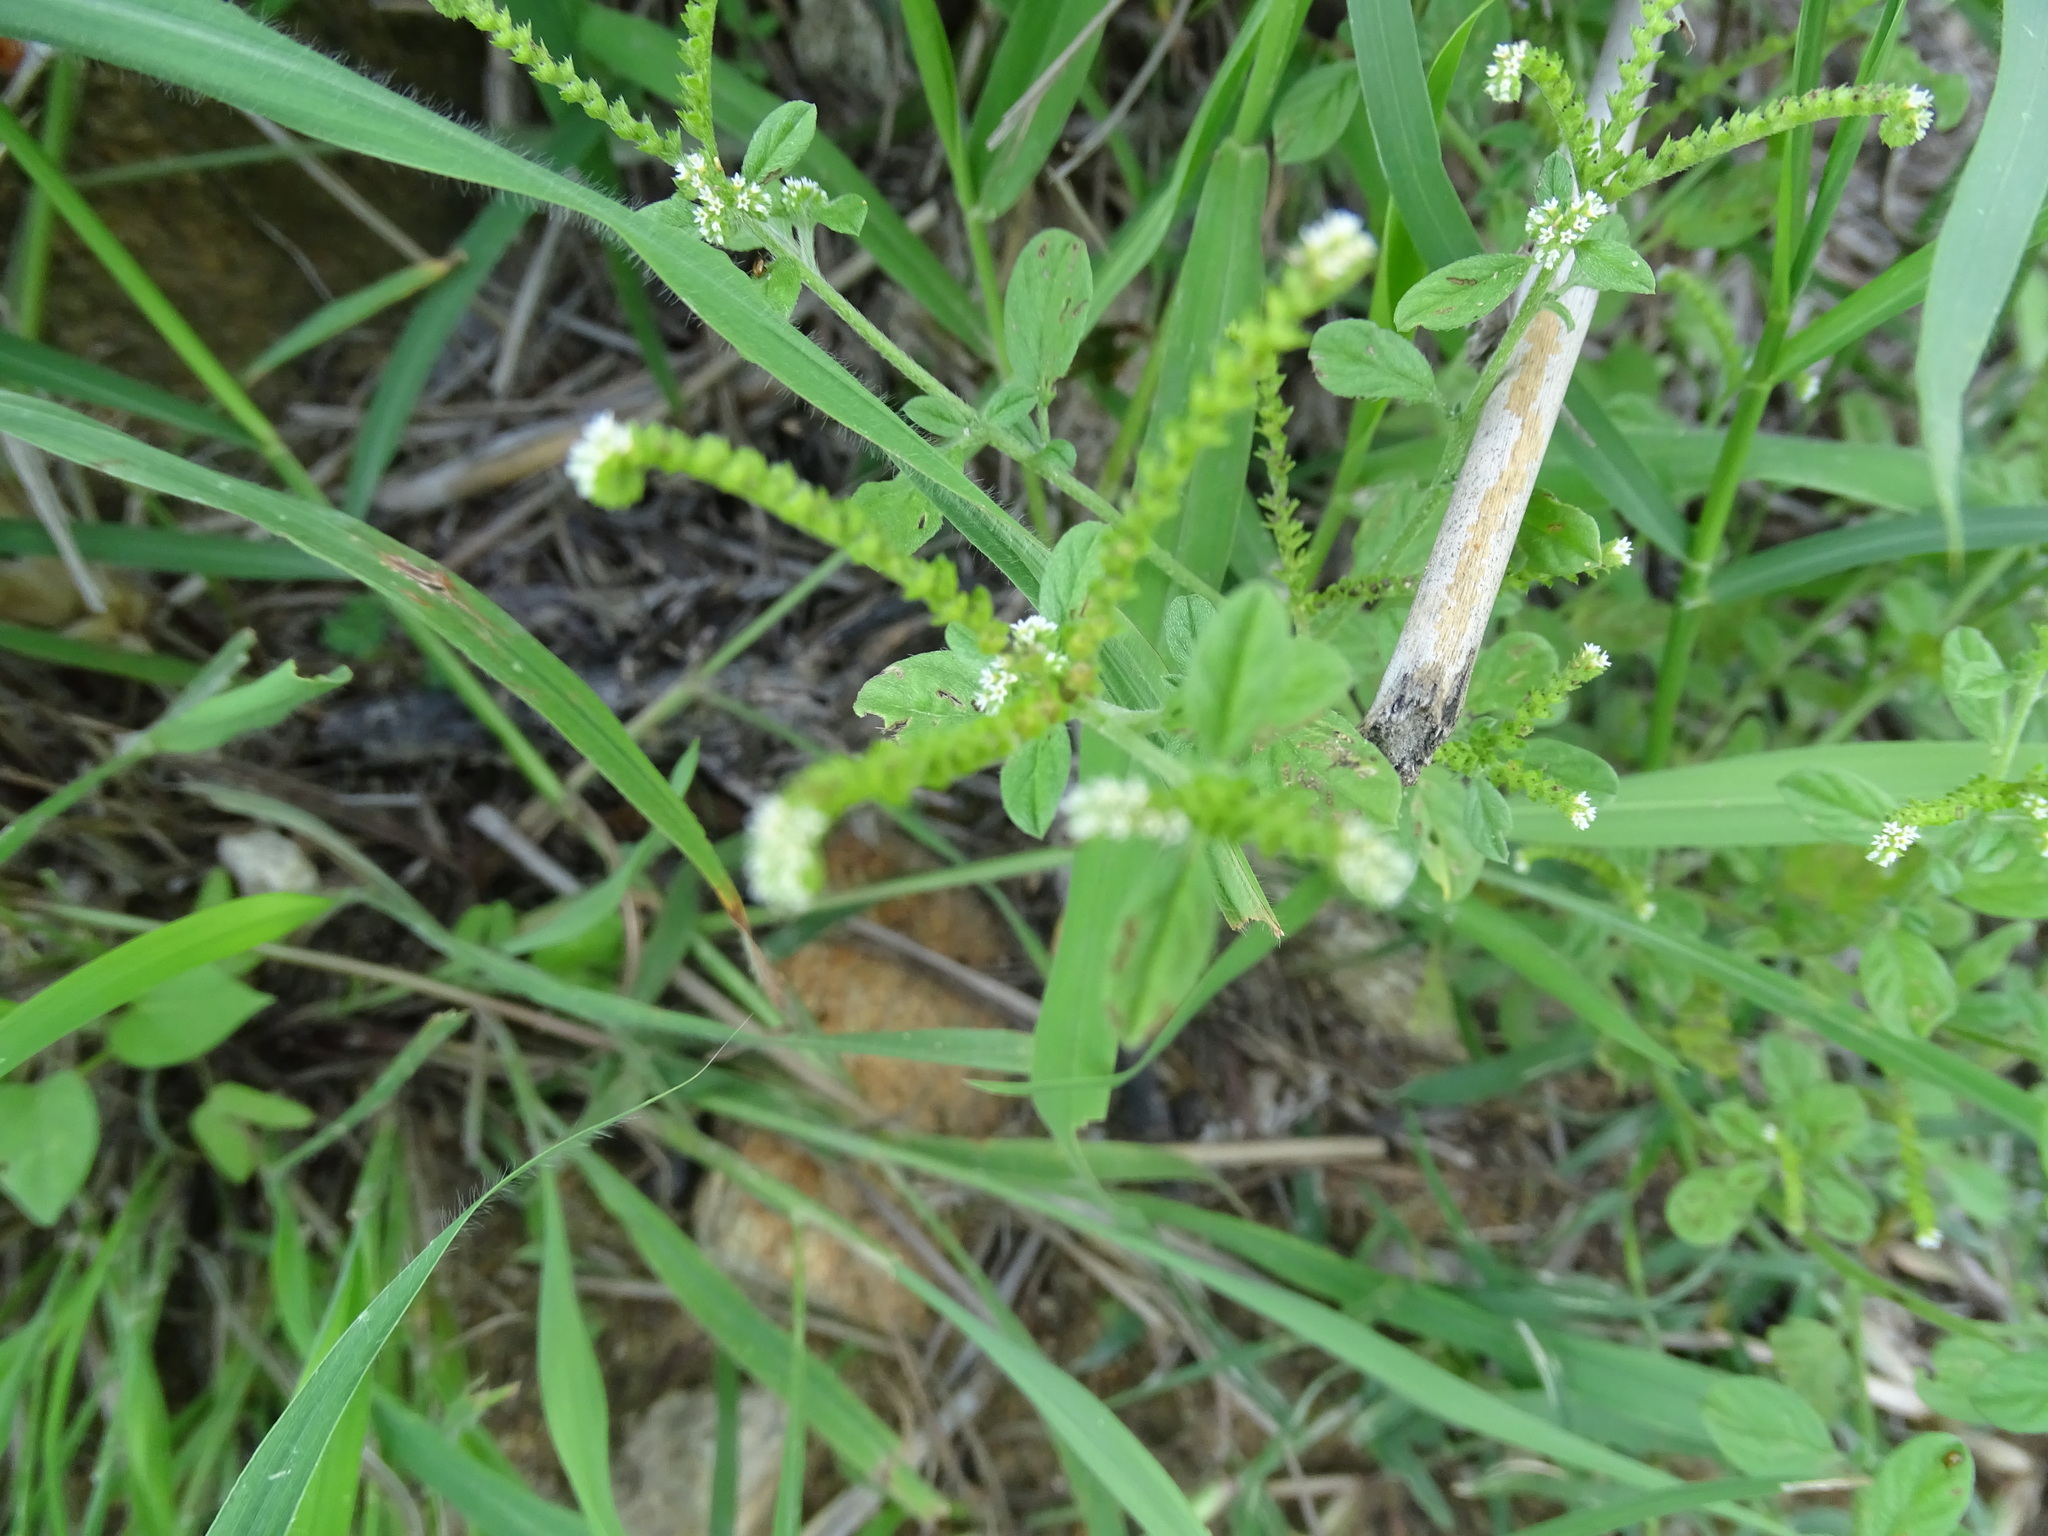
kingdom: Plantae
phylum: Tracheophyta
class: Magnoliopsida
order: Boraginales
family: Heliotropiaceae
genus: Euploca
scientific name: Euploca procumbens
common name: Fourspike heliotrope
